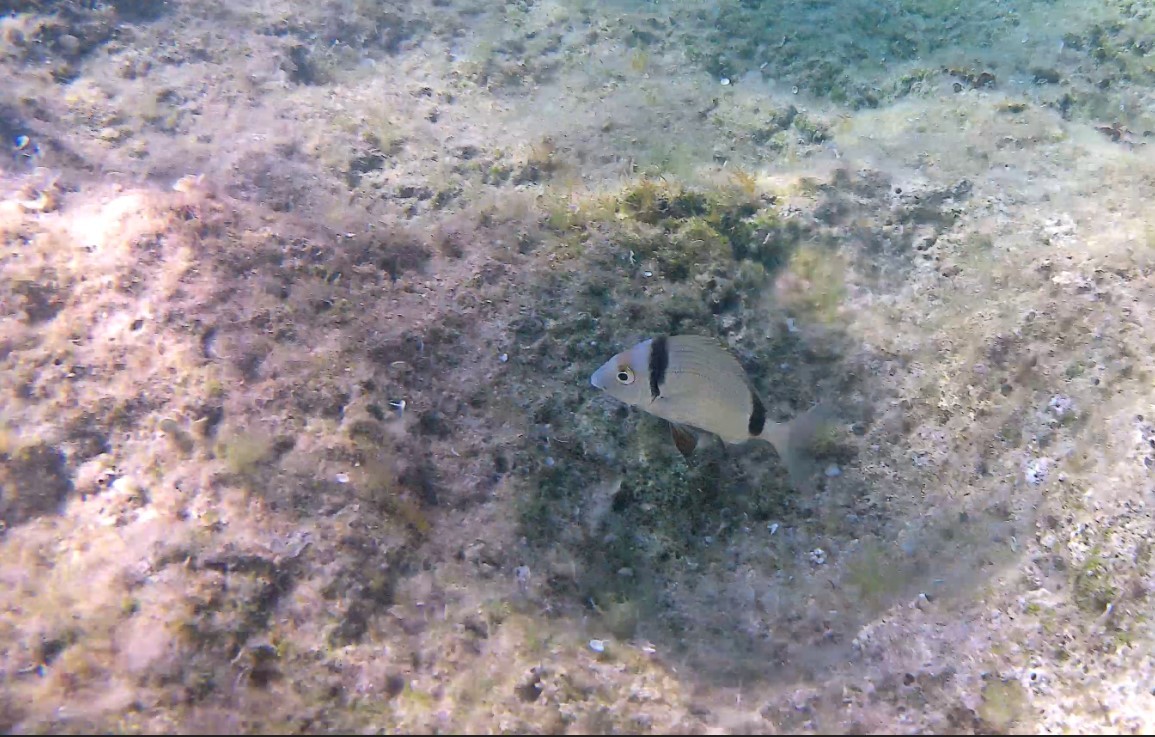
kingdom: Animalia
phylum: Chordata
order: Perciformes
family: Sparidae
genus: Diplodus
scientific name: Diplodus vulgaris
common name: Common two-banded seabream
